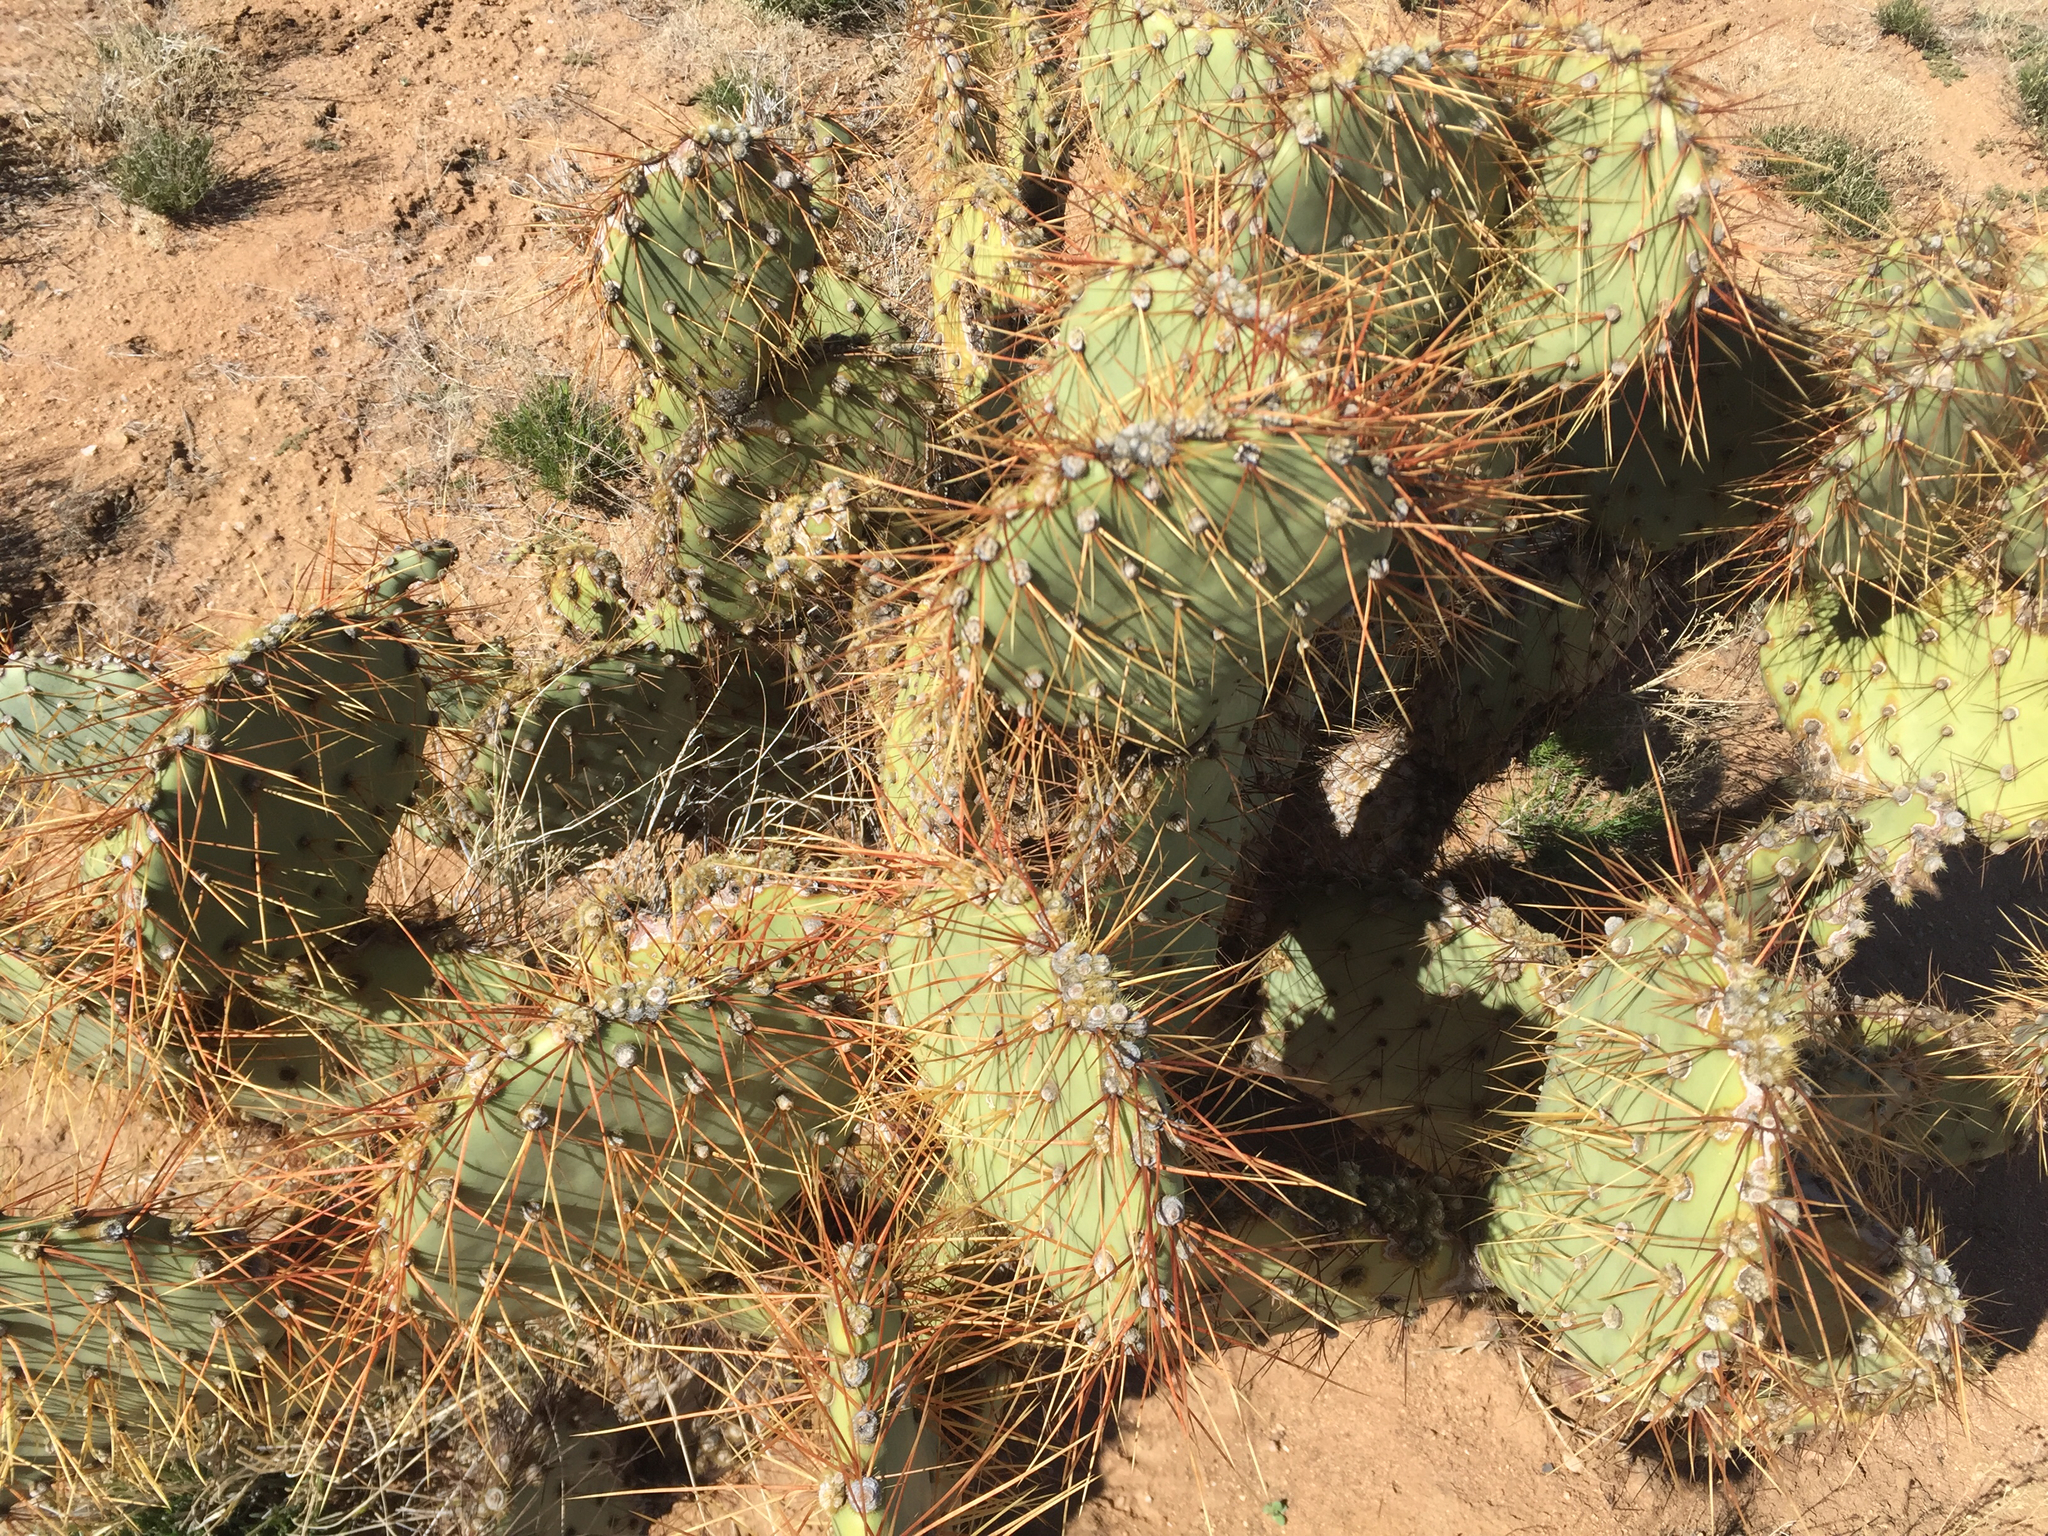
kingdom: Plantae
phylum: Tracheophyta
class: Magnoliopsida
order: Caryophyllales
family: Cactaceae
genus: Opuntia
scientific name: Opuntia polyacantha
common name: Plains prickly-pear
